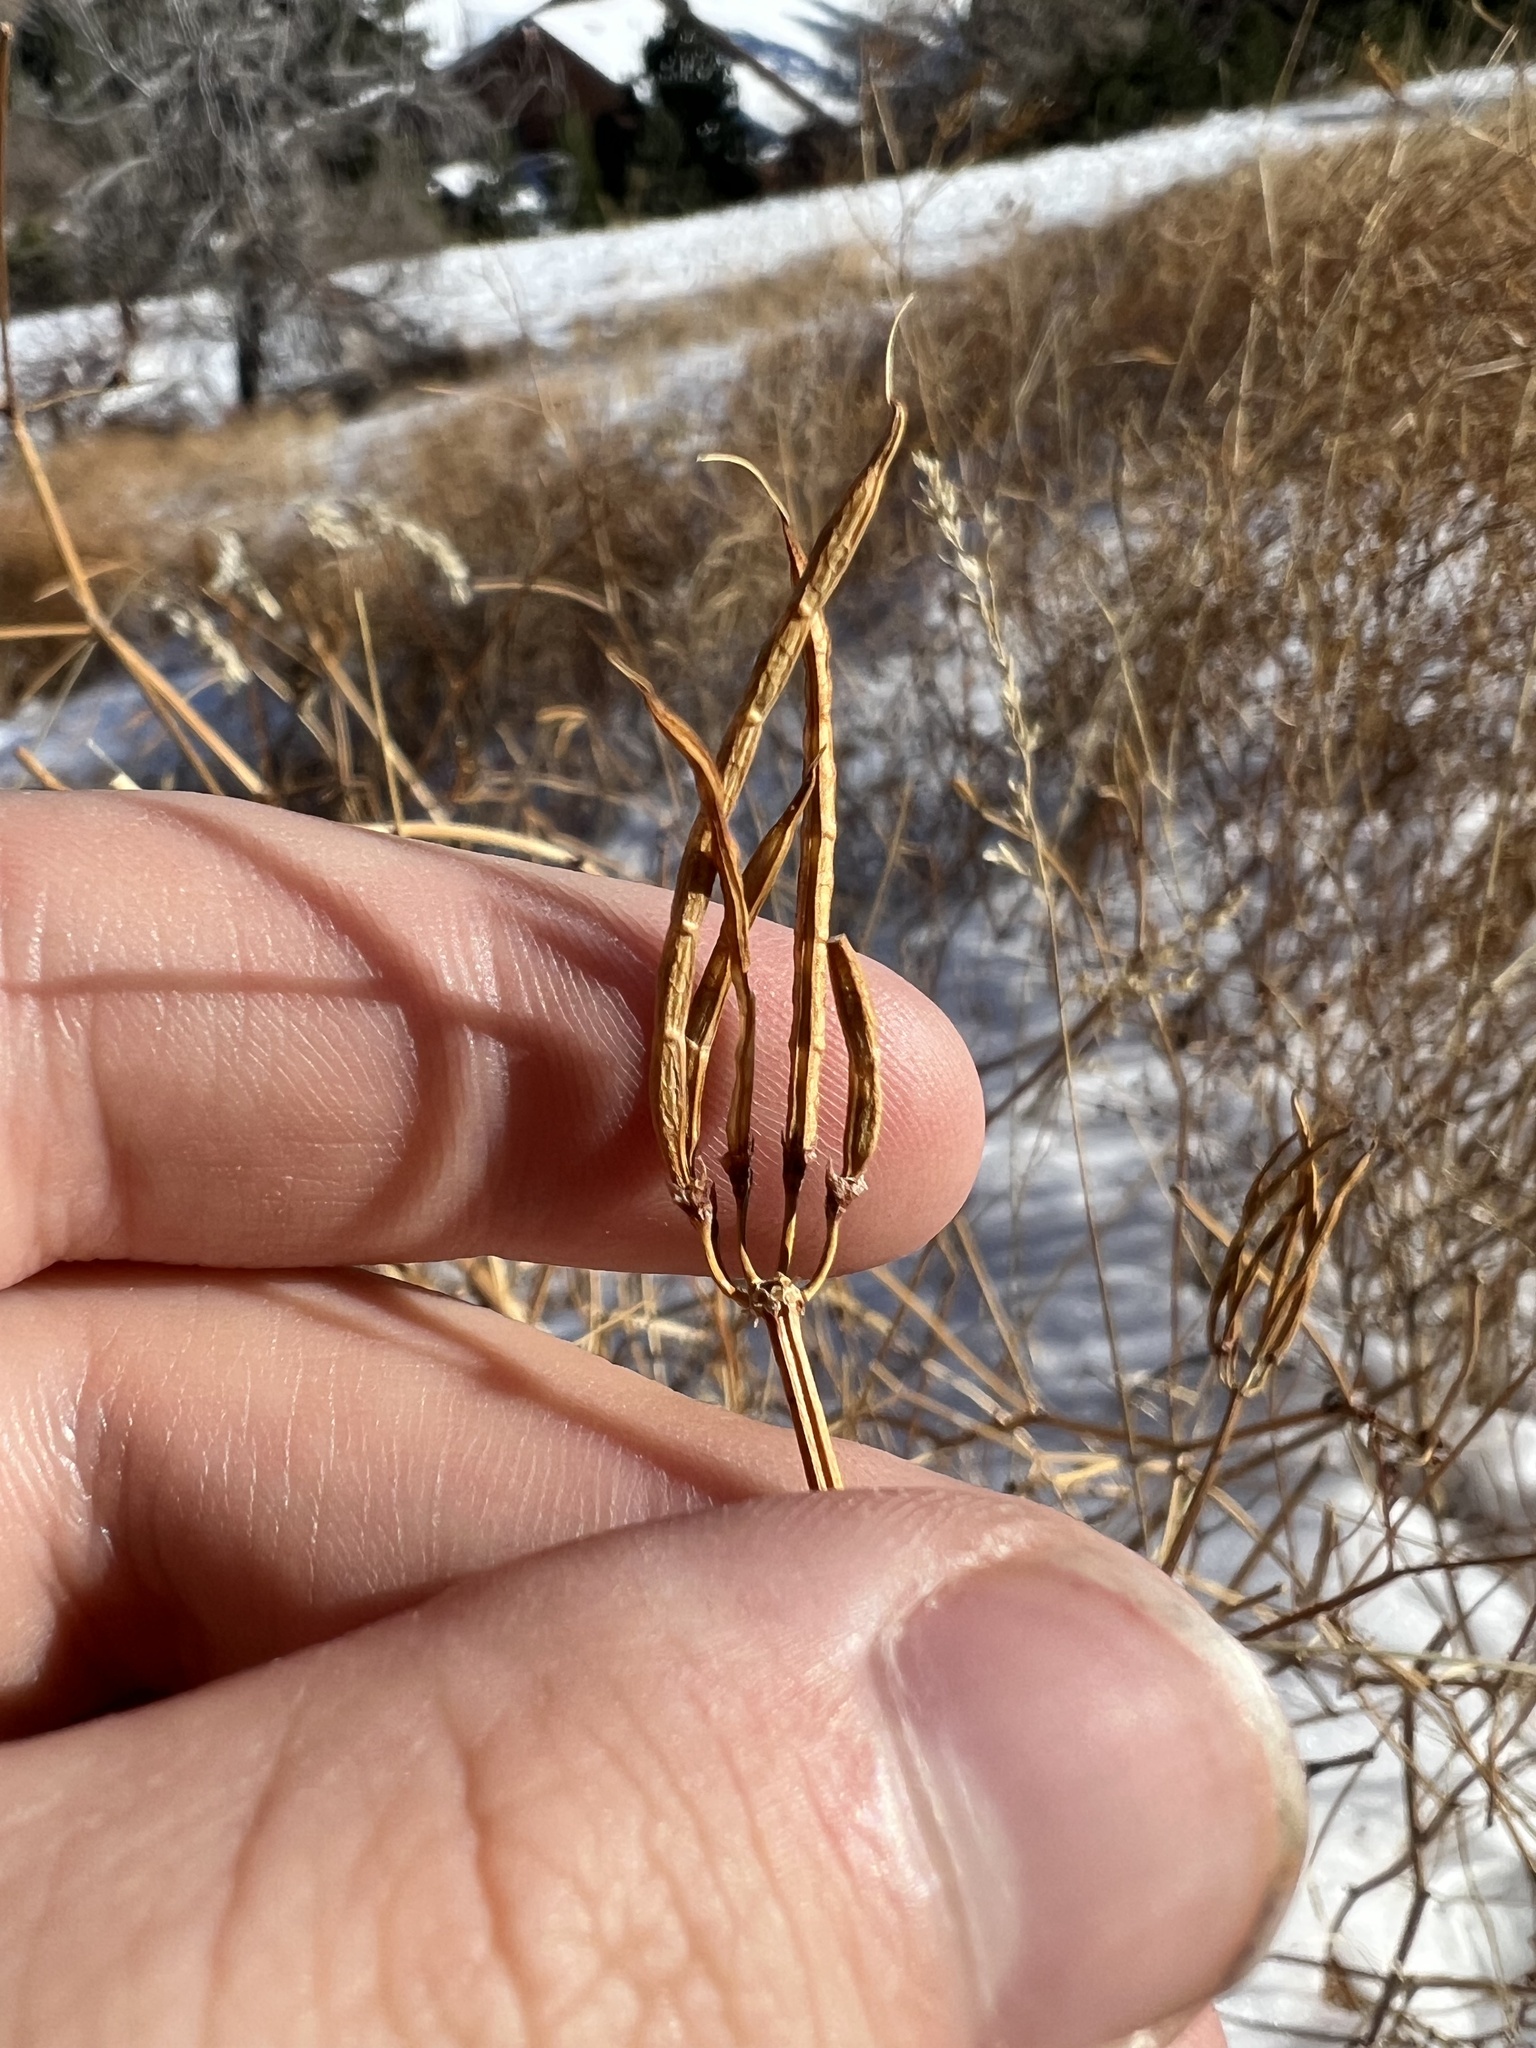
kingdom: Plantae
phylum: Tracheophyta
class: Magnoliopsida
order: Fabales
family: Fabaceae
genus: Coronilla
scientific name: Coronilla varia
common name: Crownvetch
